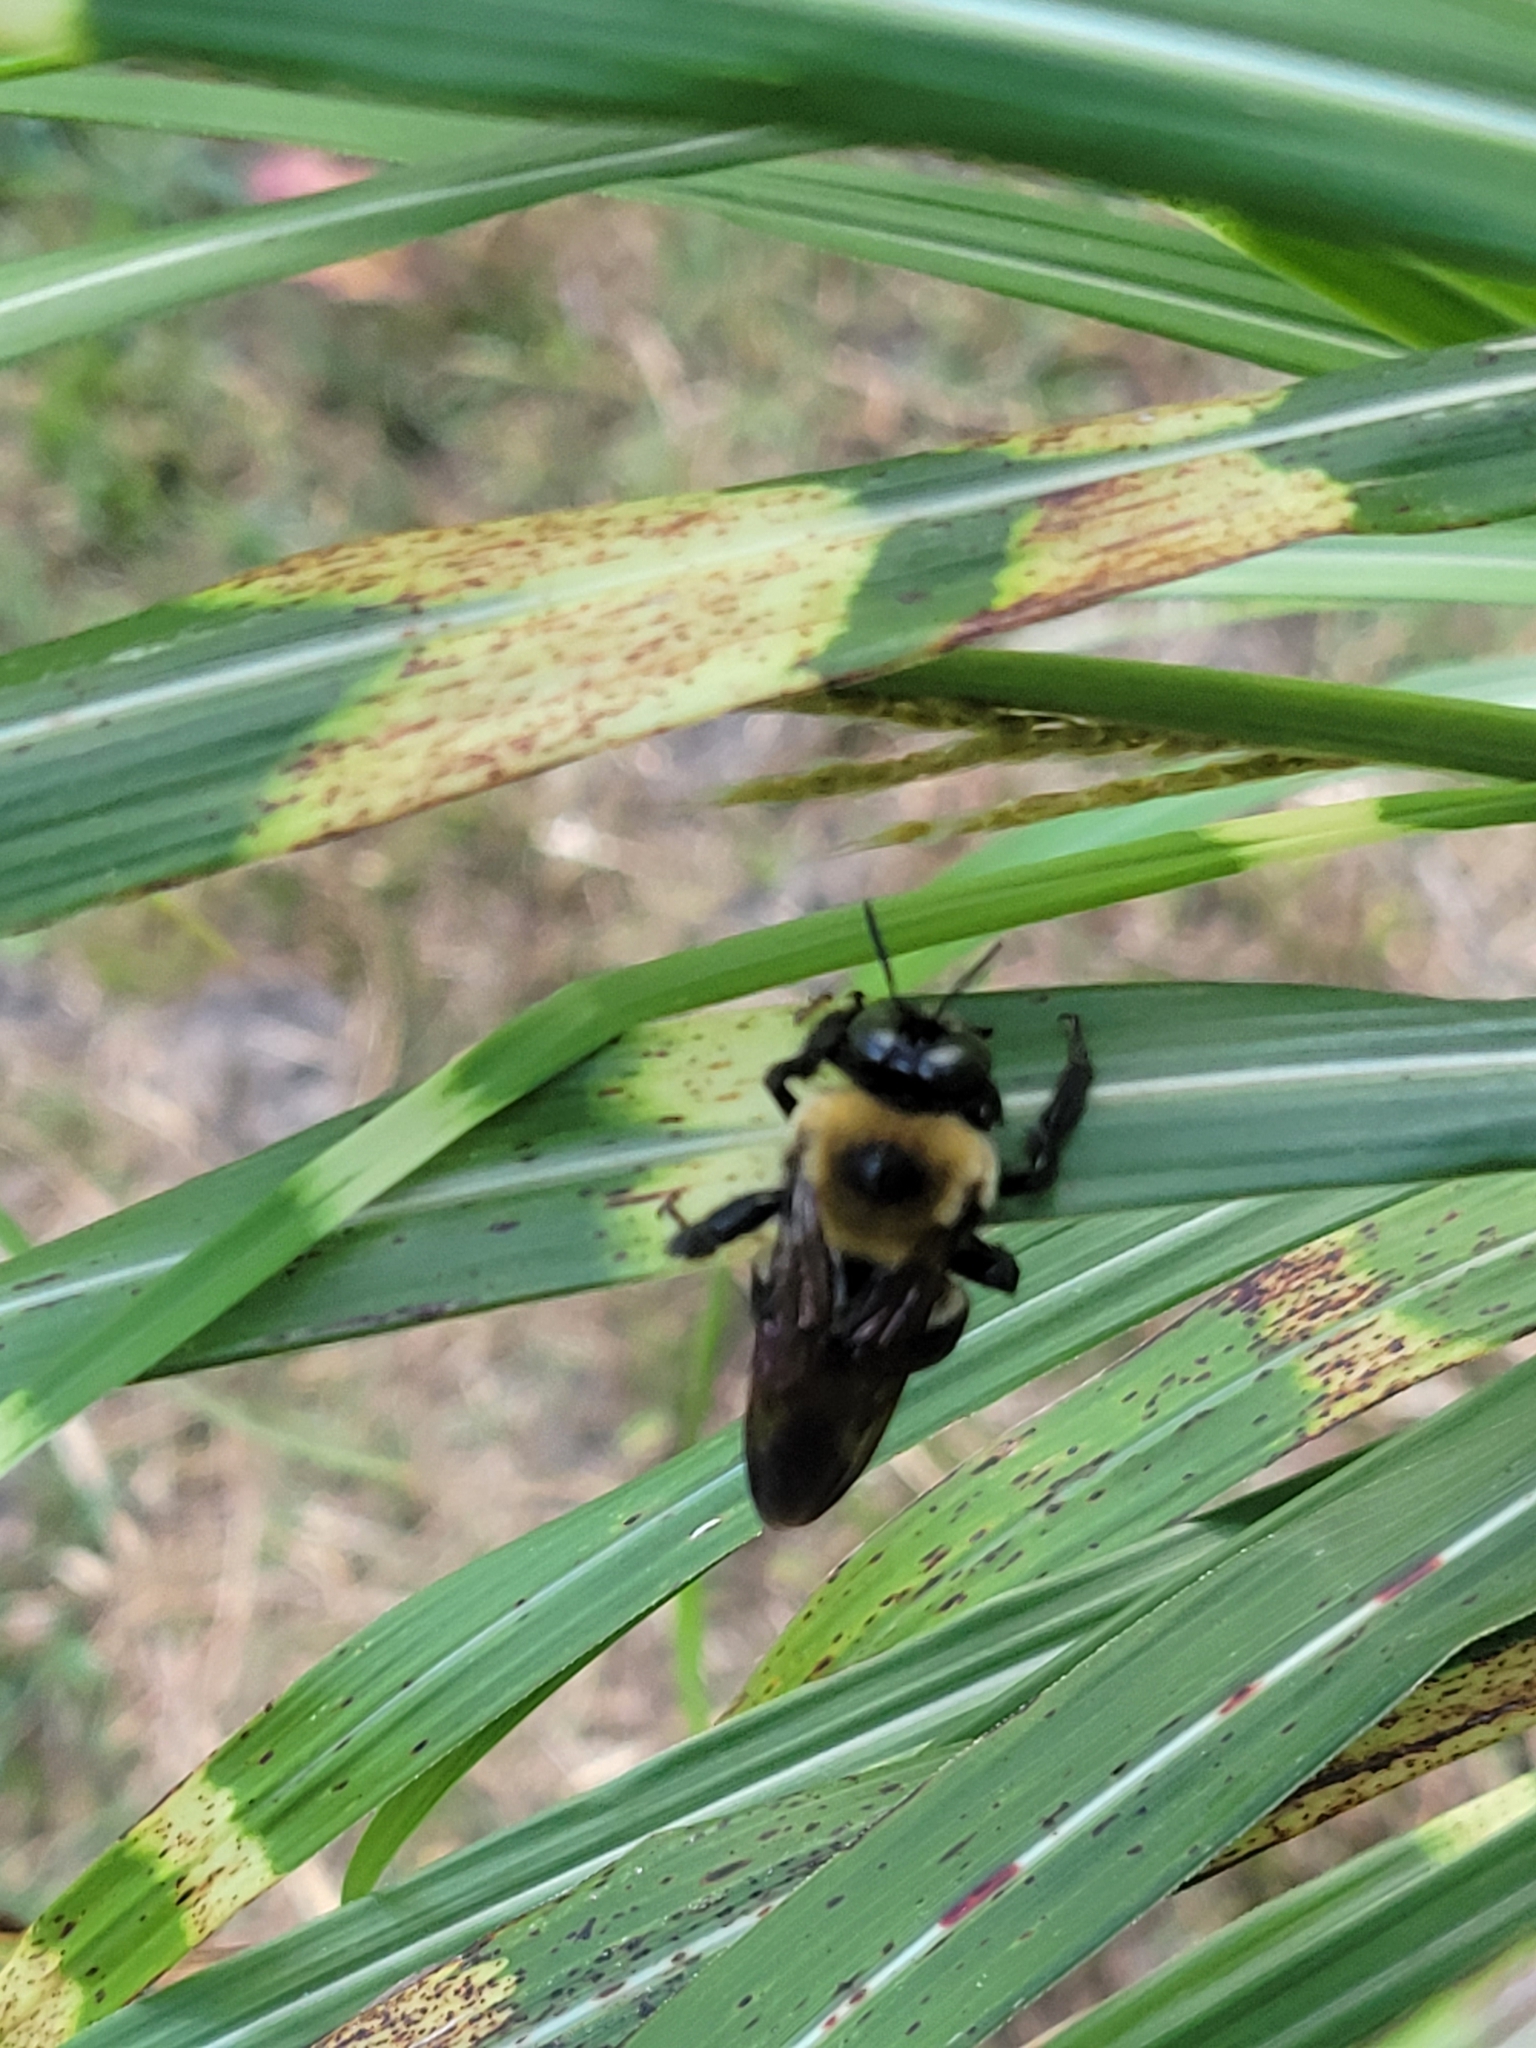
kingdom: Animalia
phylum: Arthropoda
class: Insecta
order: Hymenoptera
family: Apidae
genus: Xylocopa
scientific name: Xylocopa virginica
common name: Carpenter bee
